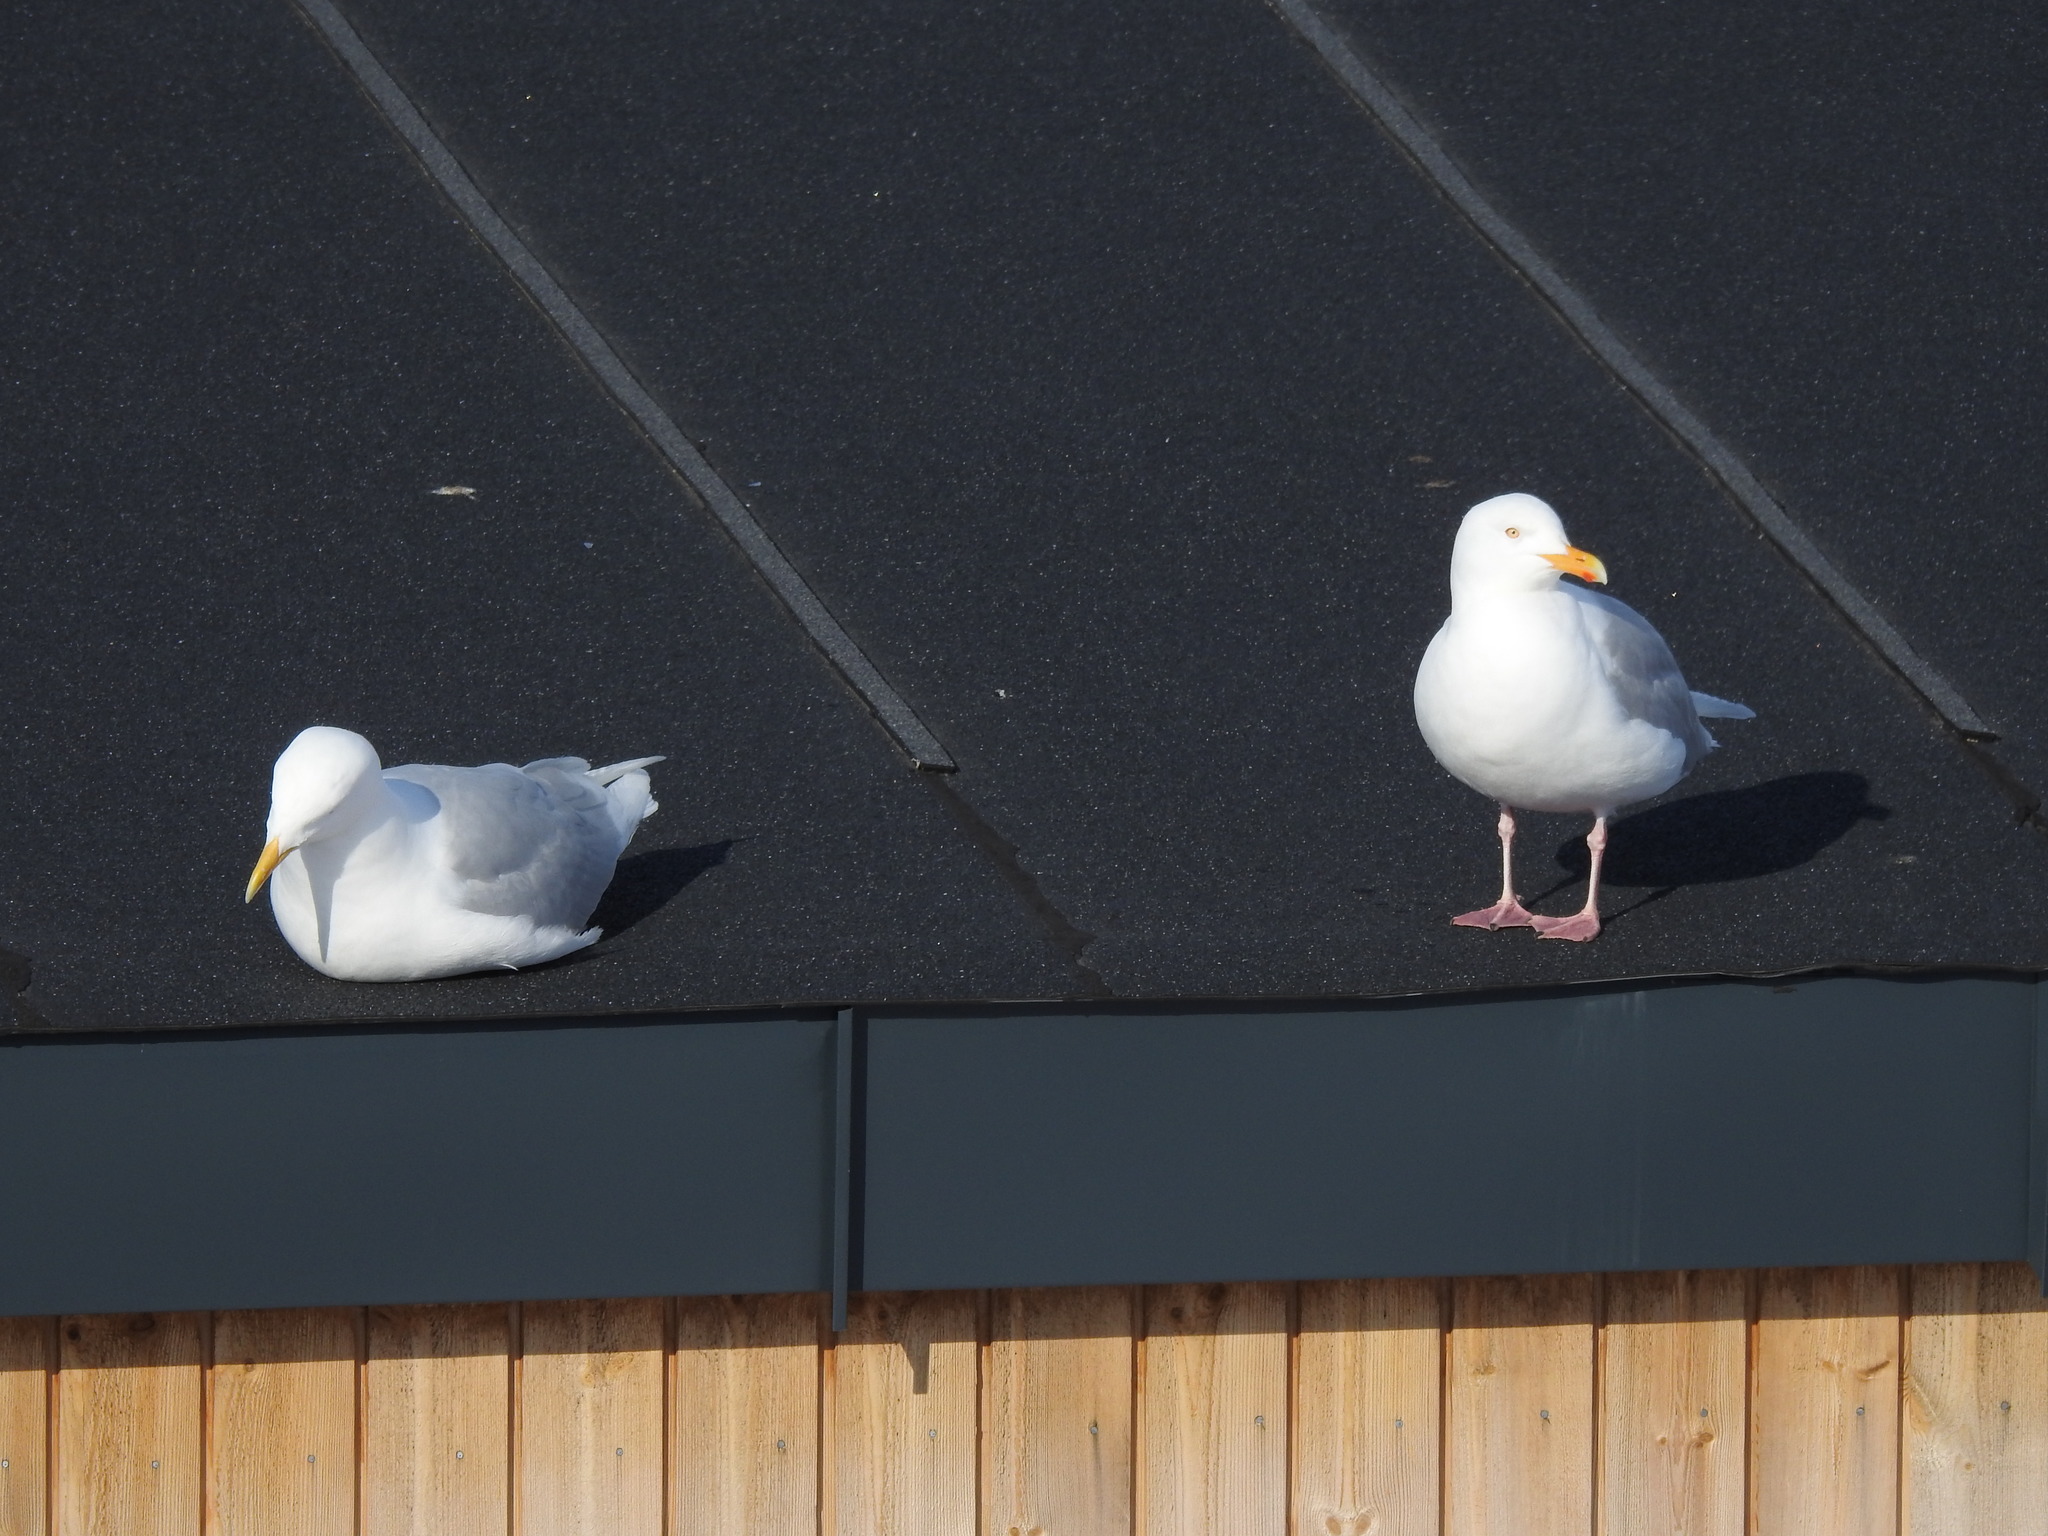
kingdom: Animalia
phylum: Chordata
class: Aves
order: Charadriiformes
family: Laridae
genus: Larus
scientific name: Larus hyperboreus
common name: Glaucous gull
